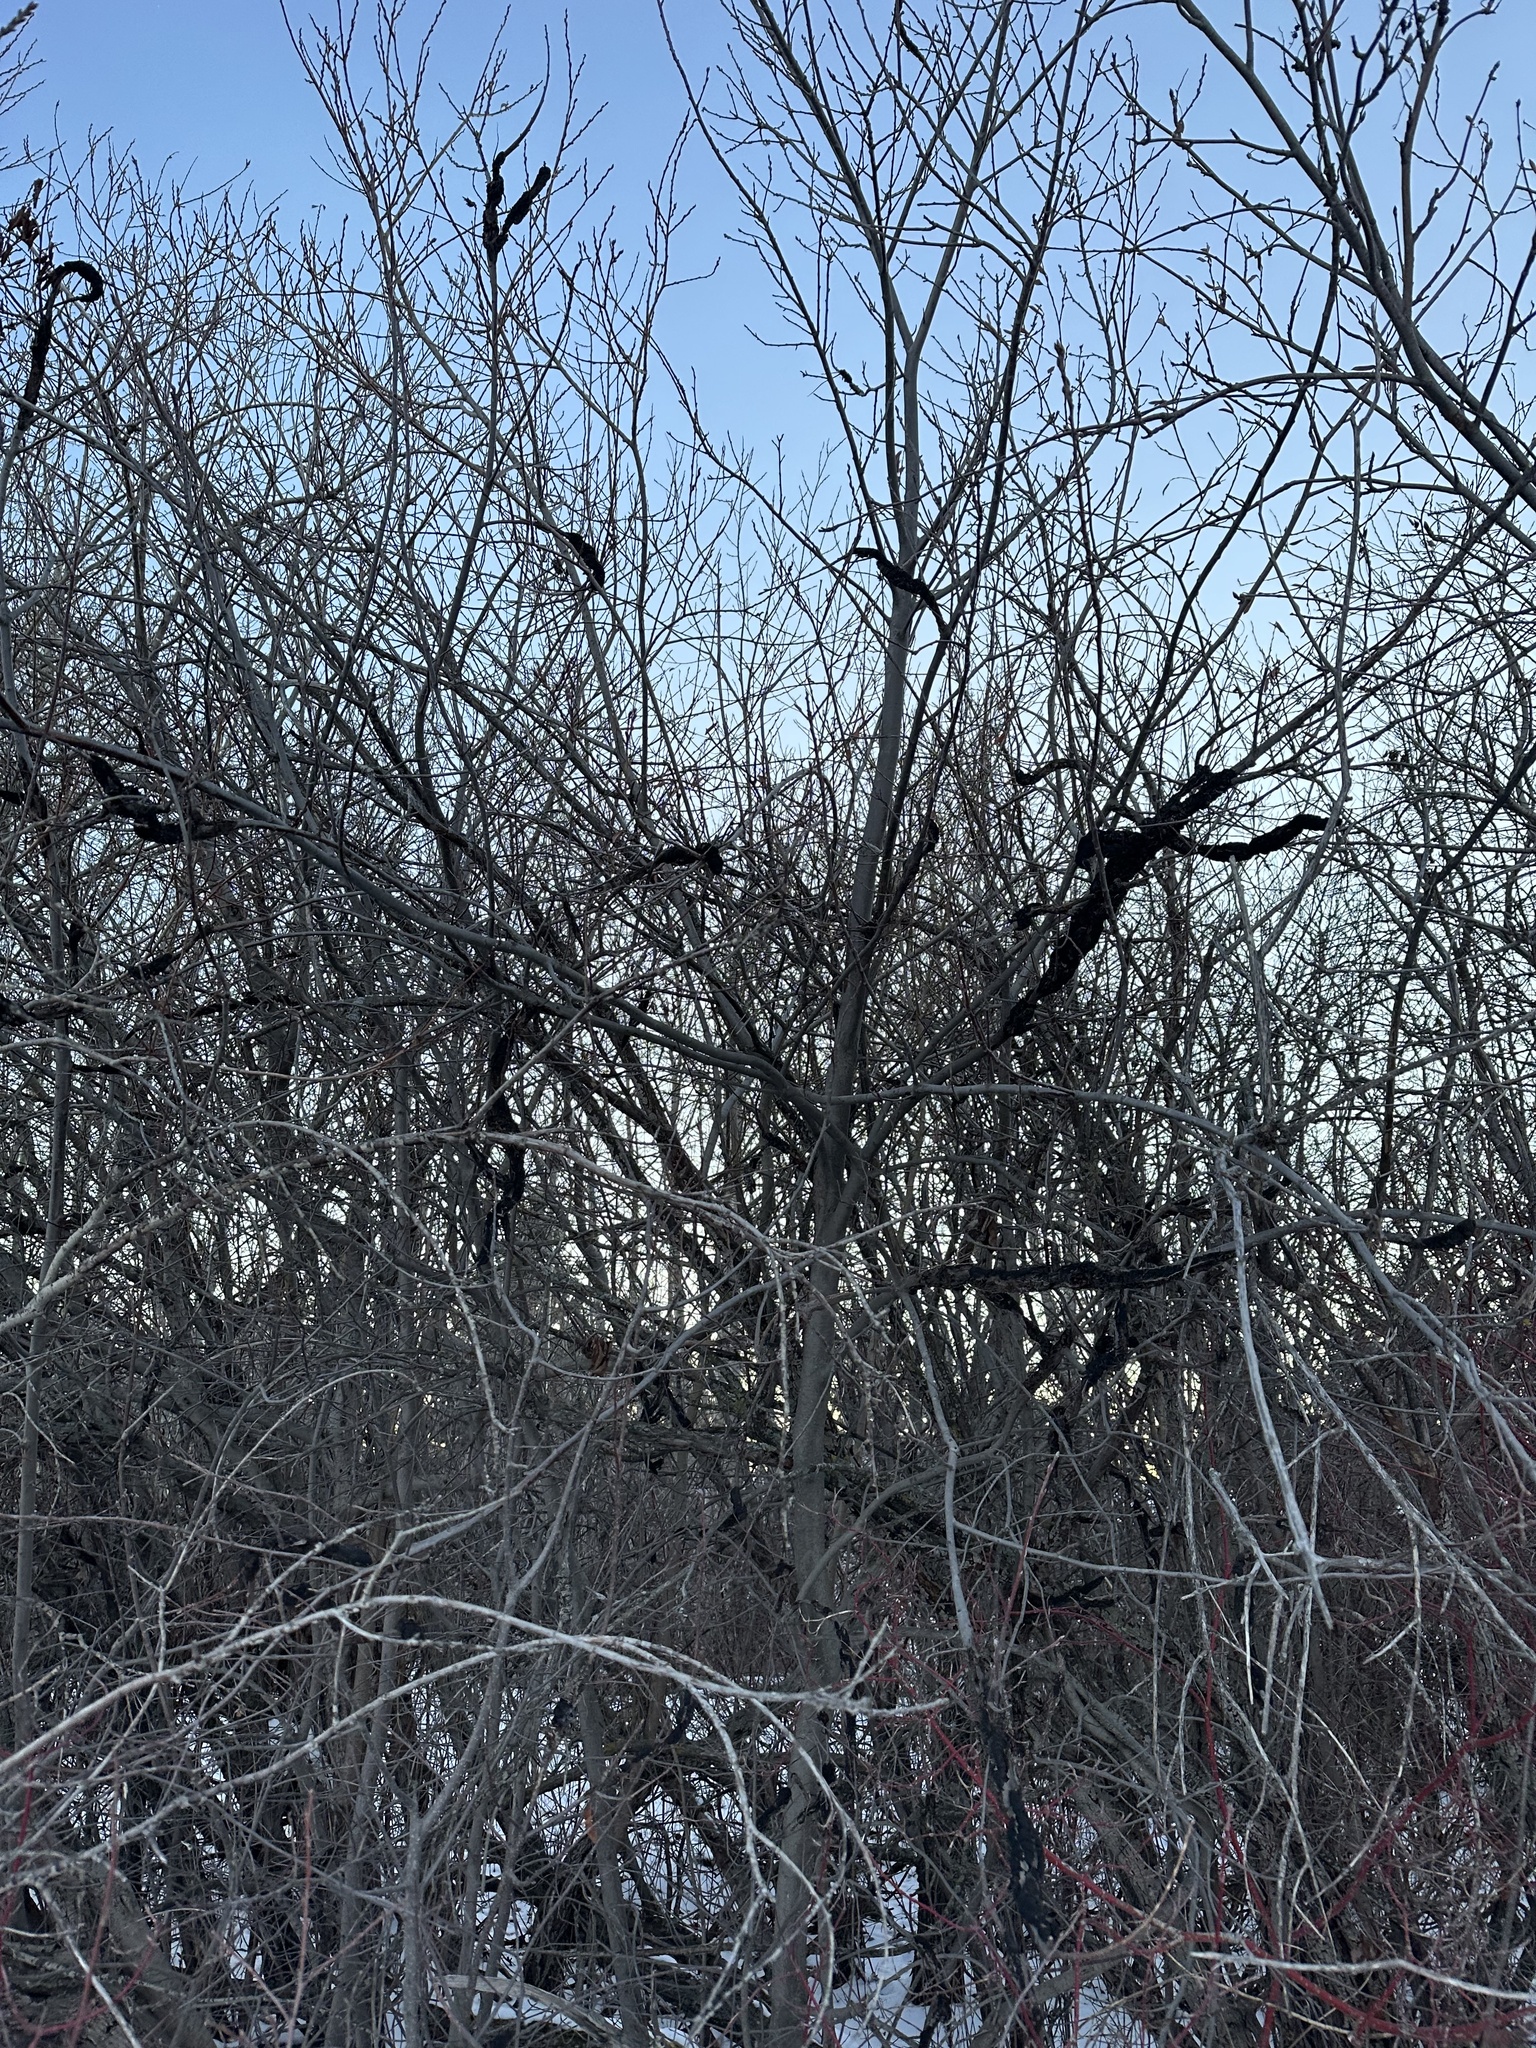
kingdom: Fungi
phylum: Ascomycota
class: Dothideomycetes
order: Venturiales
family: Venturiaceae
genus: Apiosporina
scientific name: Apiosporina morbosa
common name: Black knot
